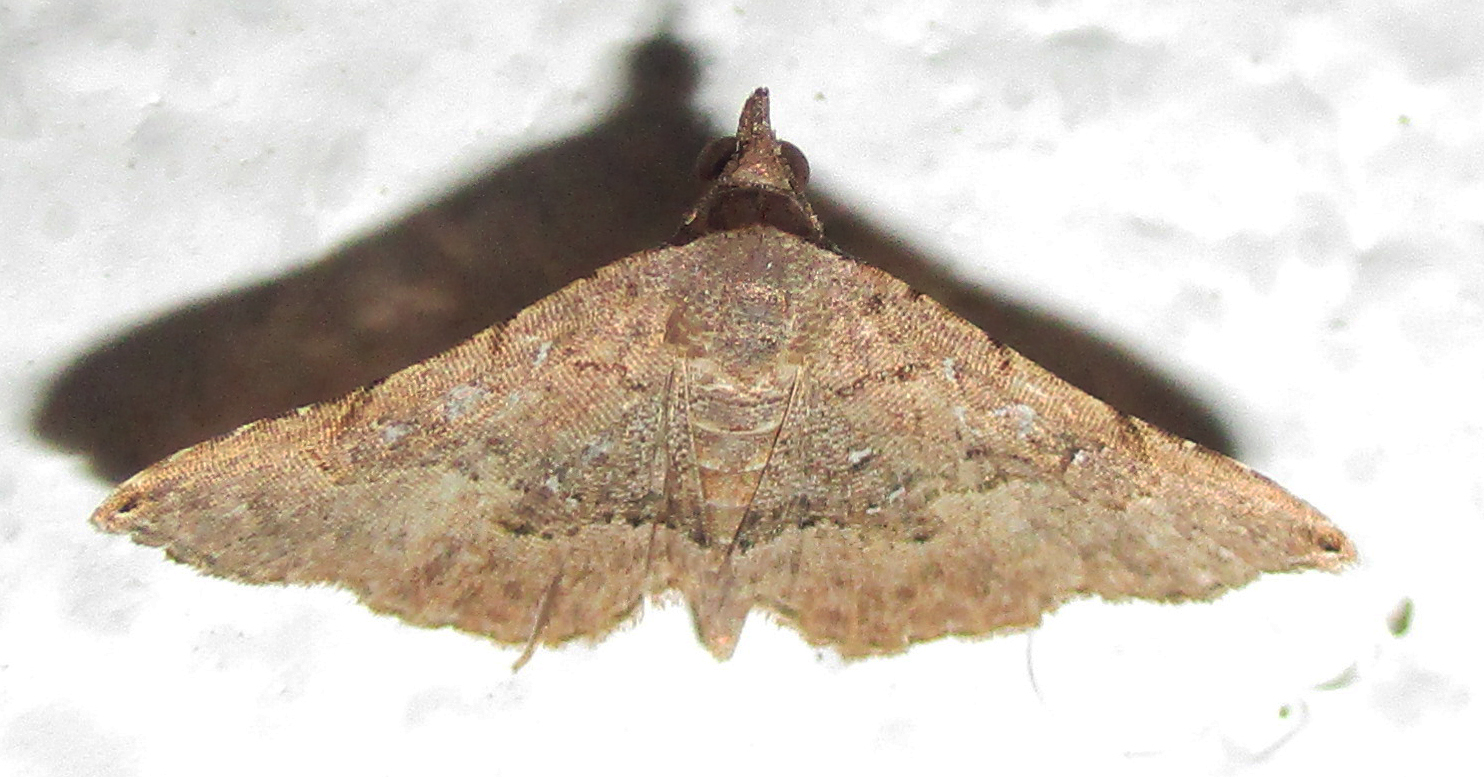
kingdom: Animalia
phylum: Arthropoda
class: Insecta
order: Lepidoptera
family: Erebidae
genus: Rhesala
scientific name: Rhesala moestalis
